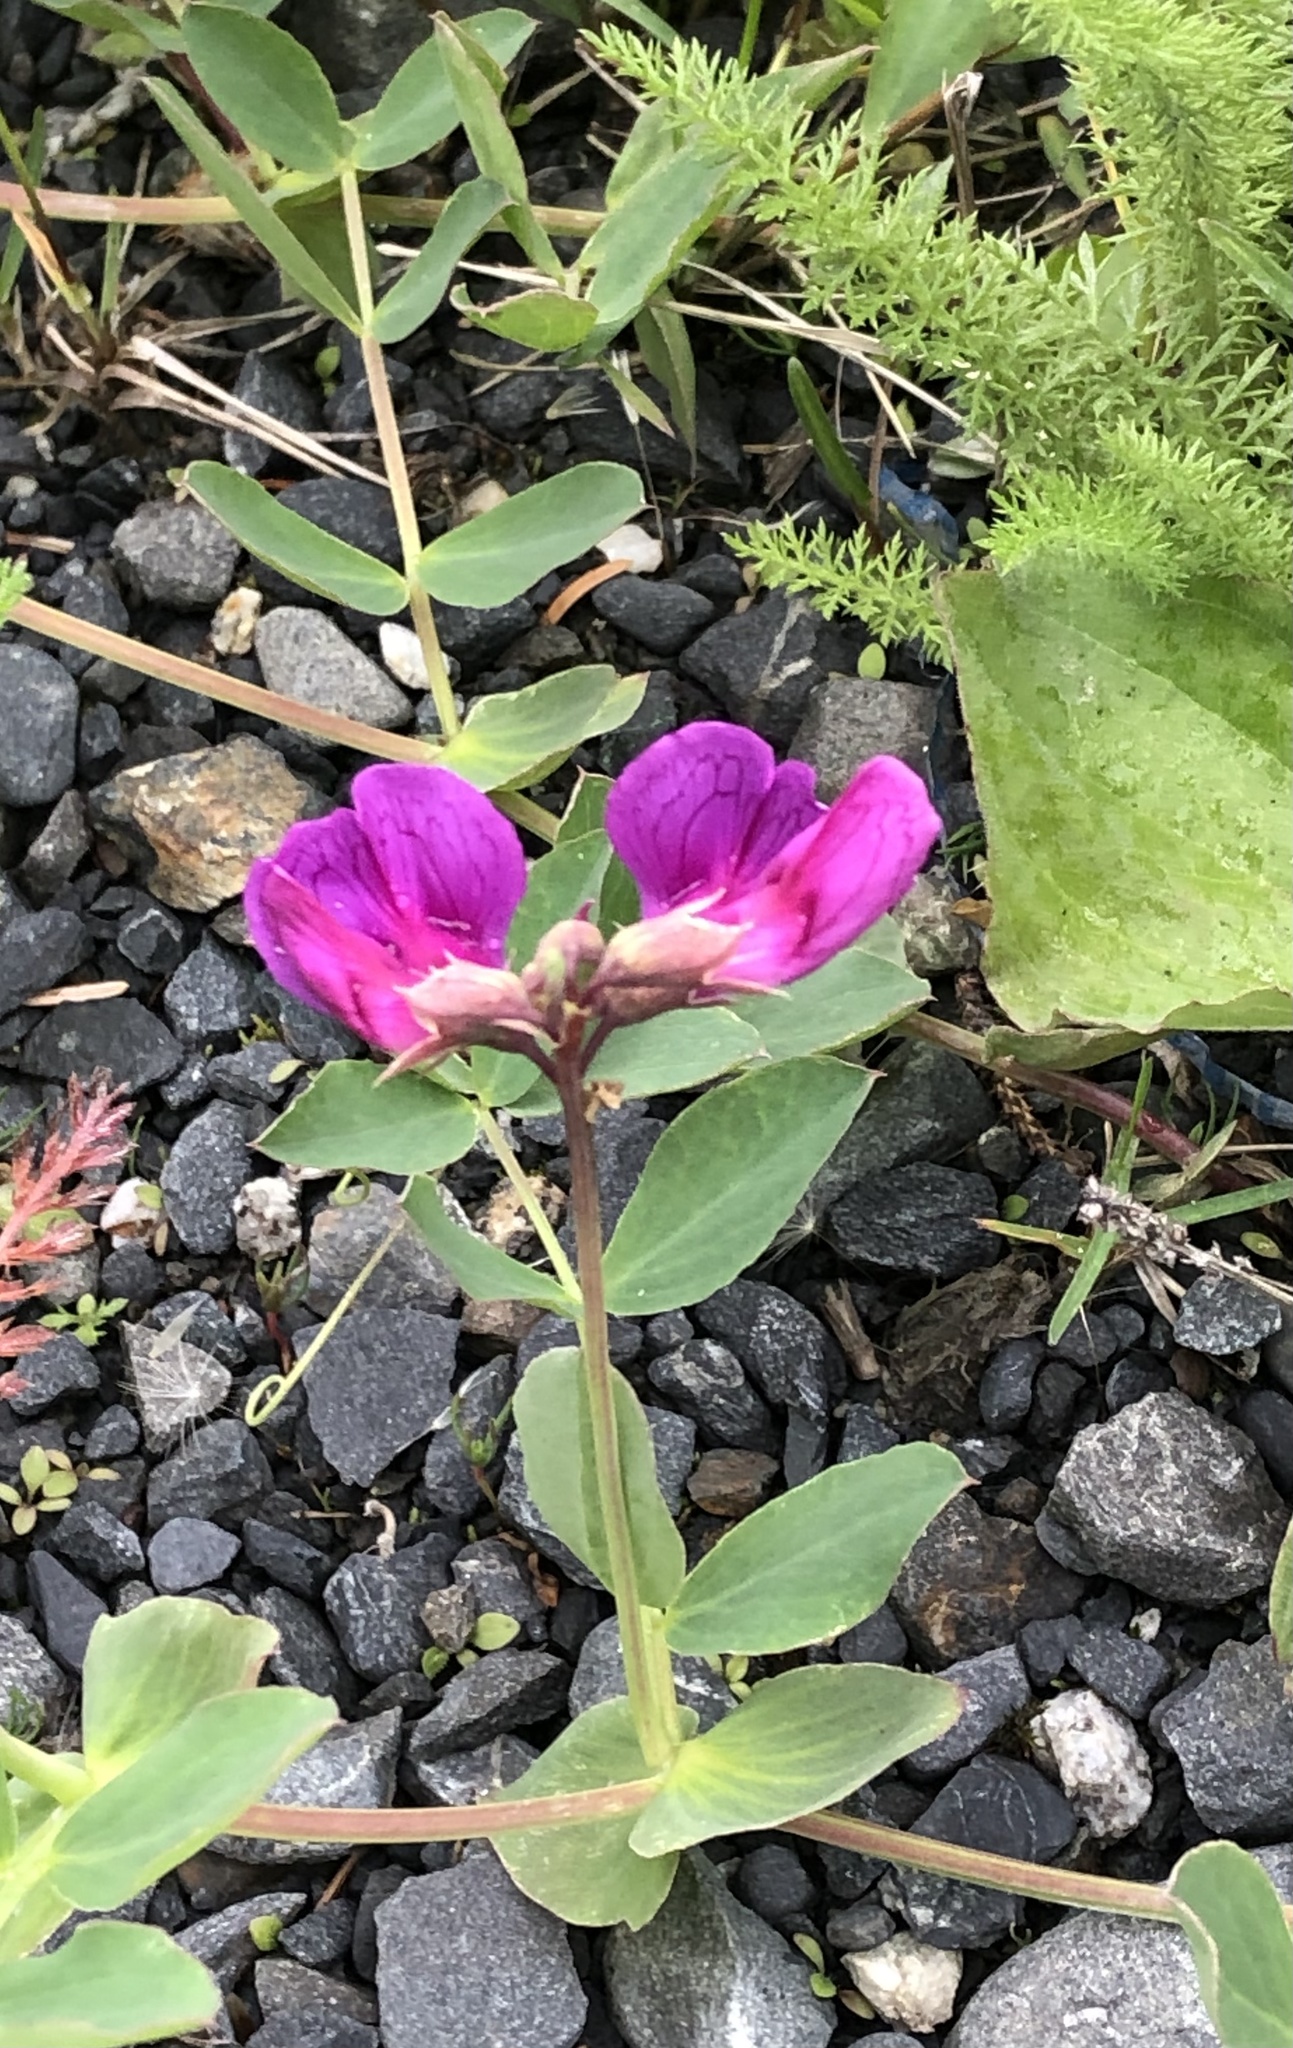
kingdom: Plantae
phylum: Tracheophyta
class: Magnoliopsida
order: Fabales
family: Fabaceae
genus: Lathyrus
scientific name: Lathyrus japonicus
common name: Sea pea
